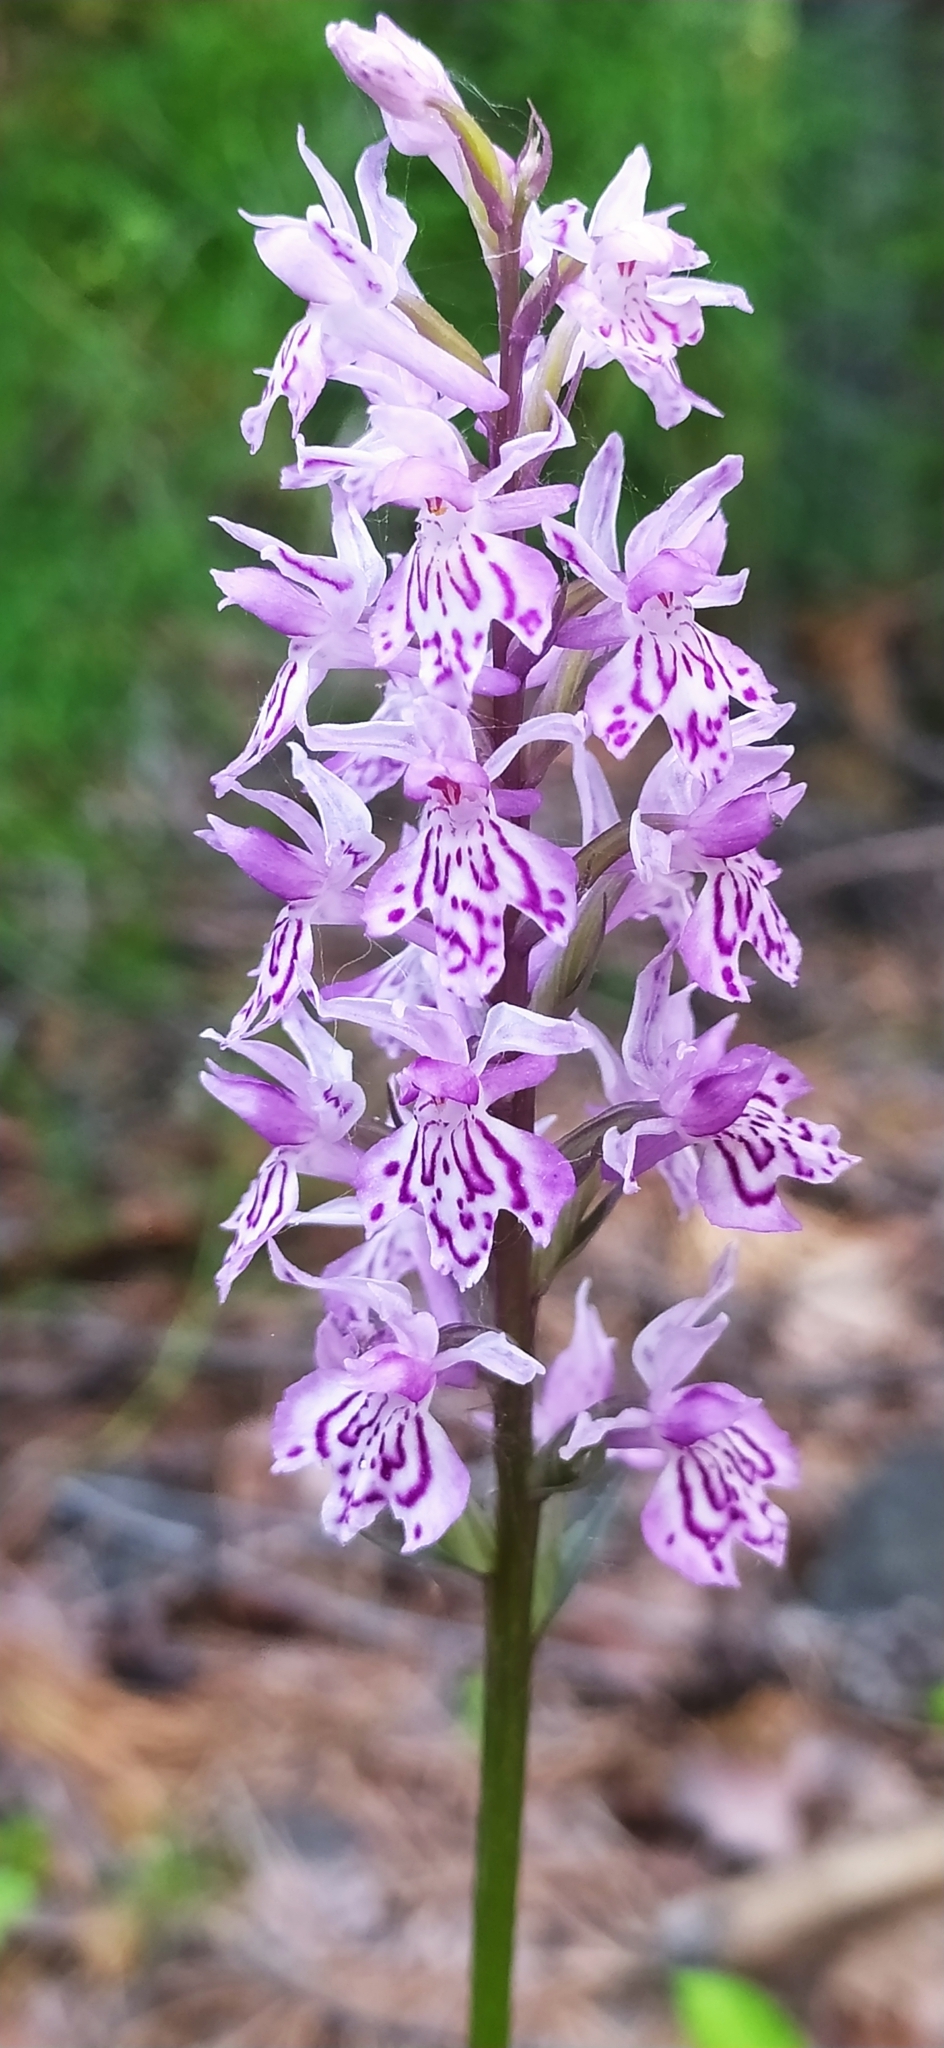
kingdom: Plantae
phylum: Tracheophyta
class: Liliopsida
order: Asparagales
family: Orchidaceae
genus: Dactylorhiza
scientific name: Dactylorhiza maculata
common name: Heath spotted-orchid
